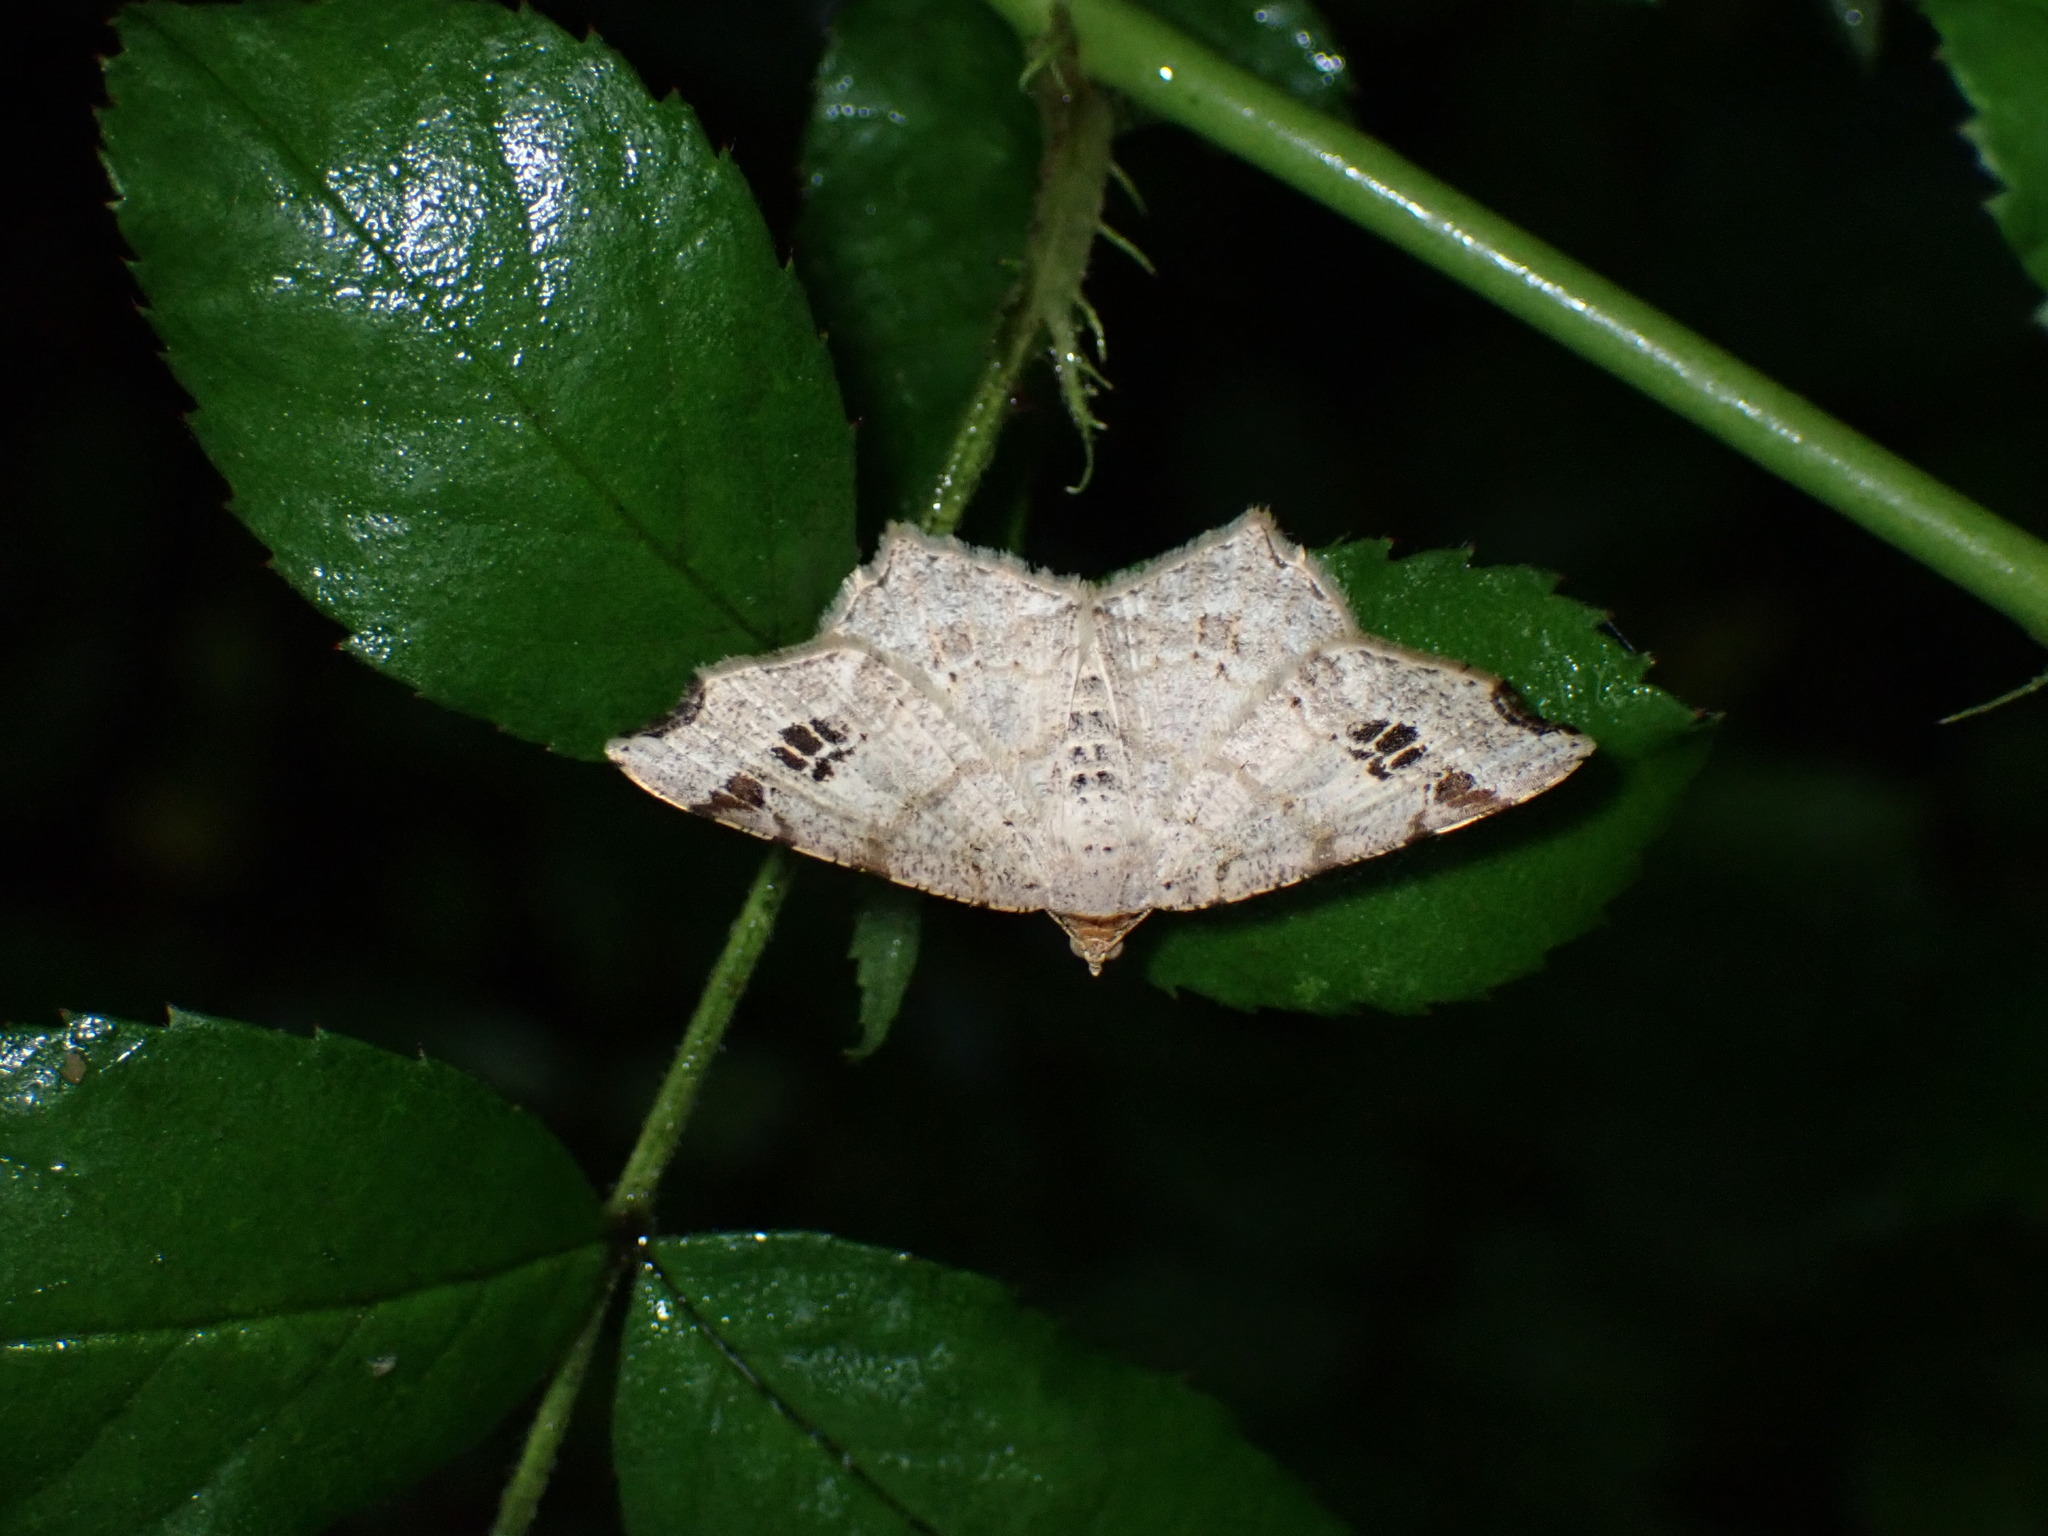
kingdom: Animalia
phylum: Arthropoda
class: Insecta
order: Lepidoptera
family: Geometridae
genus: Macaria
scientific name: Macaria aemulataria
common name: Common angle
